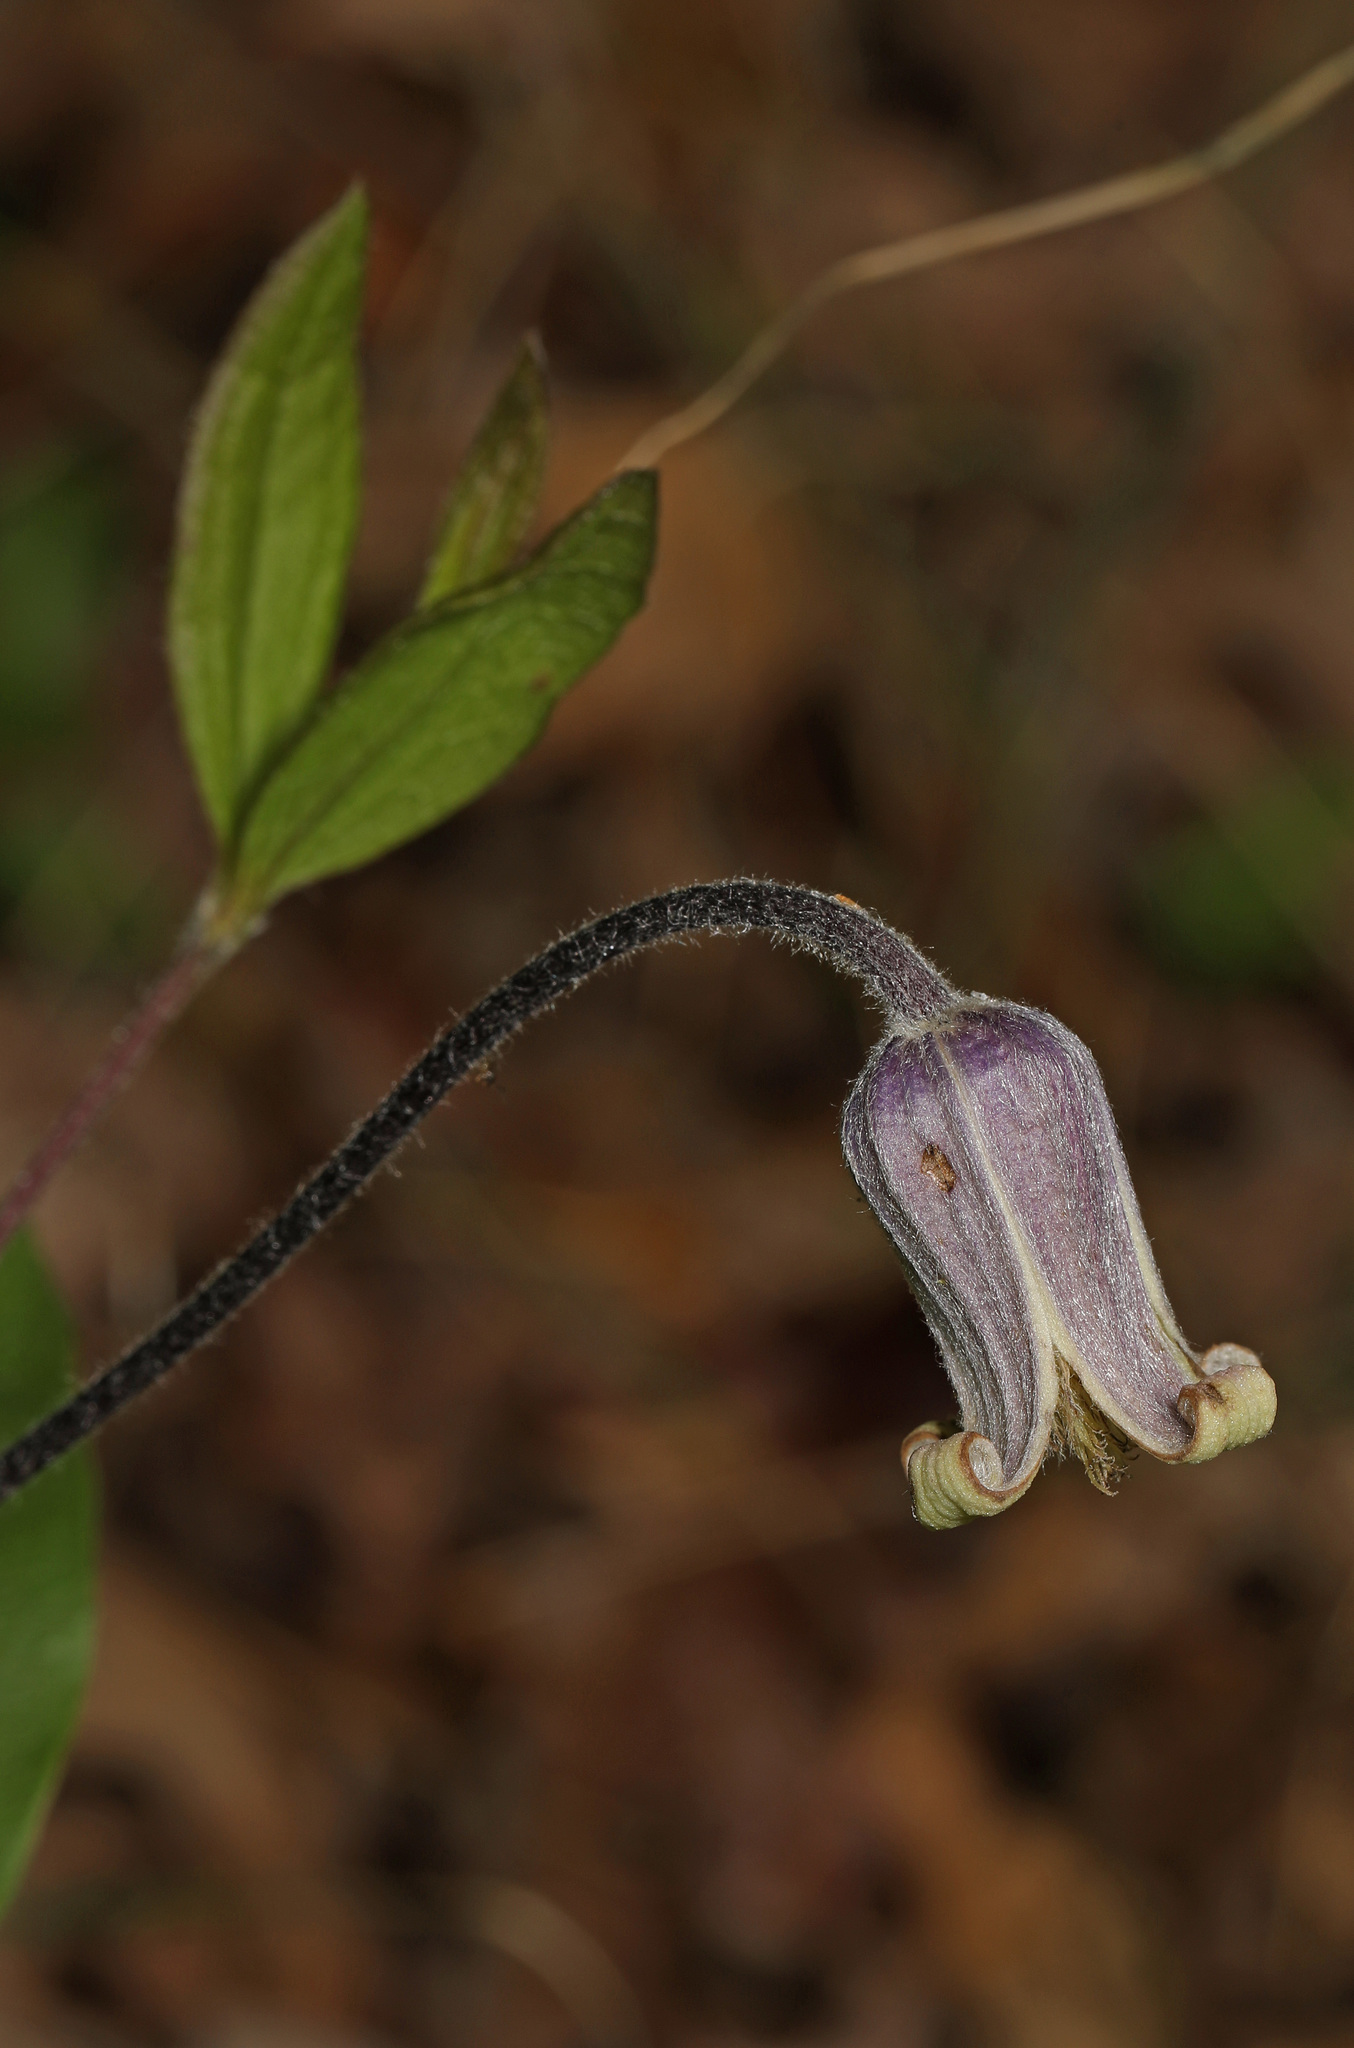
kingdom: Plantae
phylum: Tracheophyta
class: Magnoliopsida
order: Ranunculales
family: Ranunculaceae
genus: Clematis
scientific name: Clematis ochroleuca
